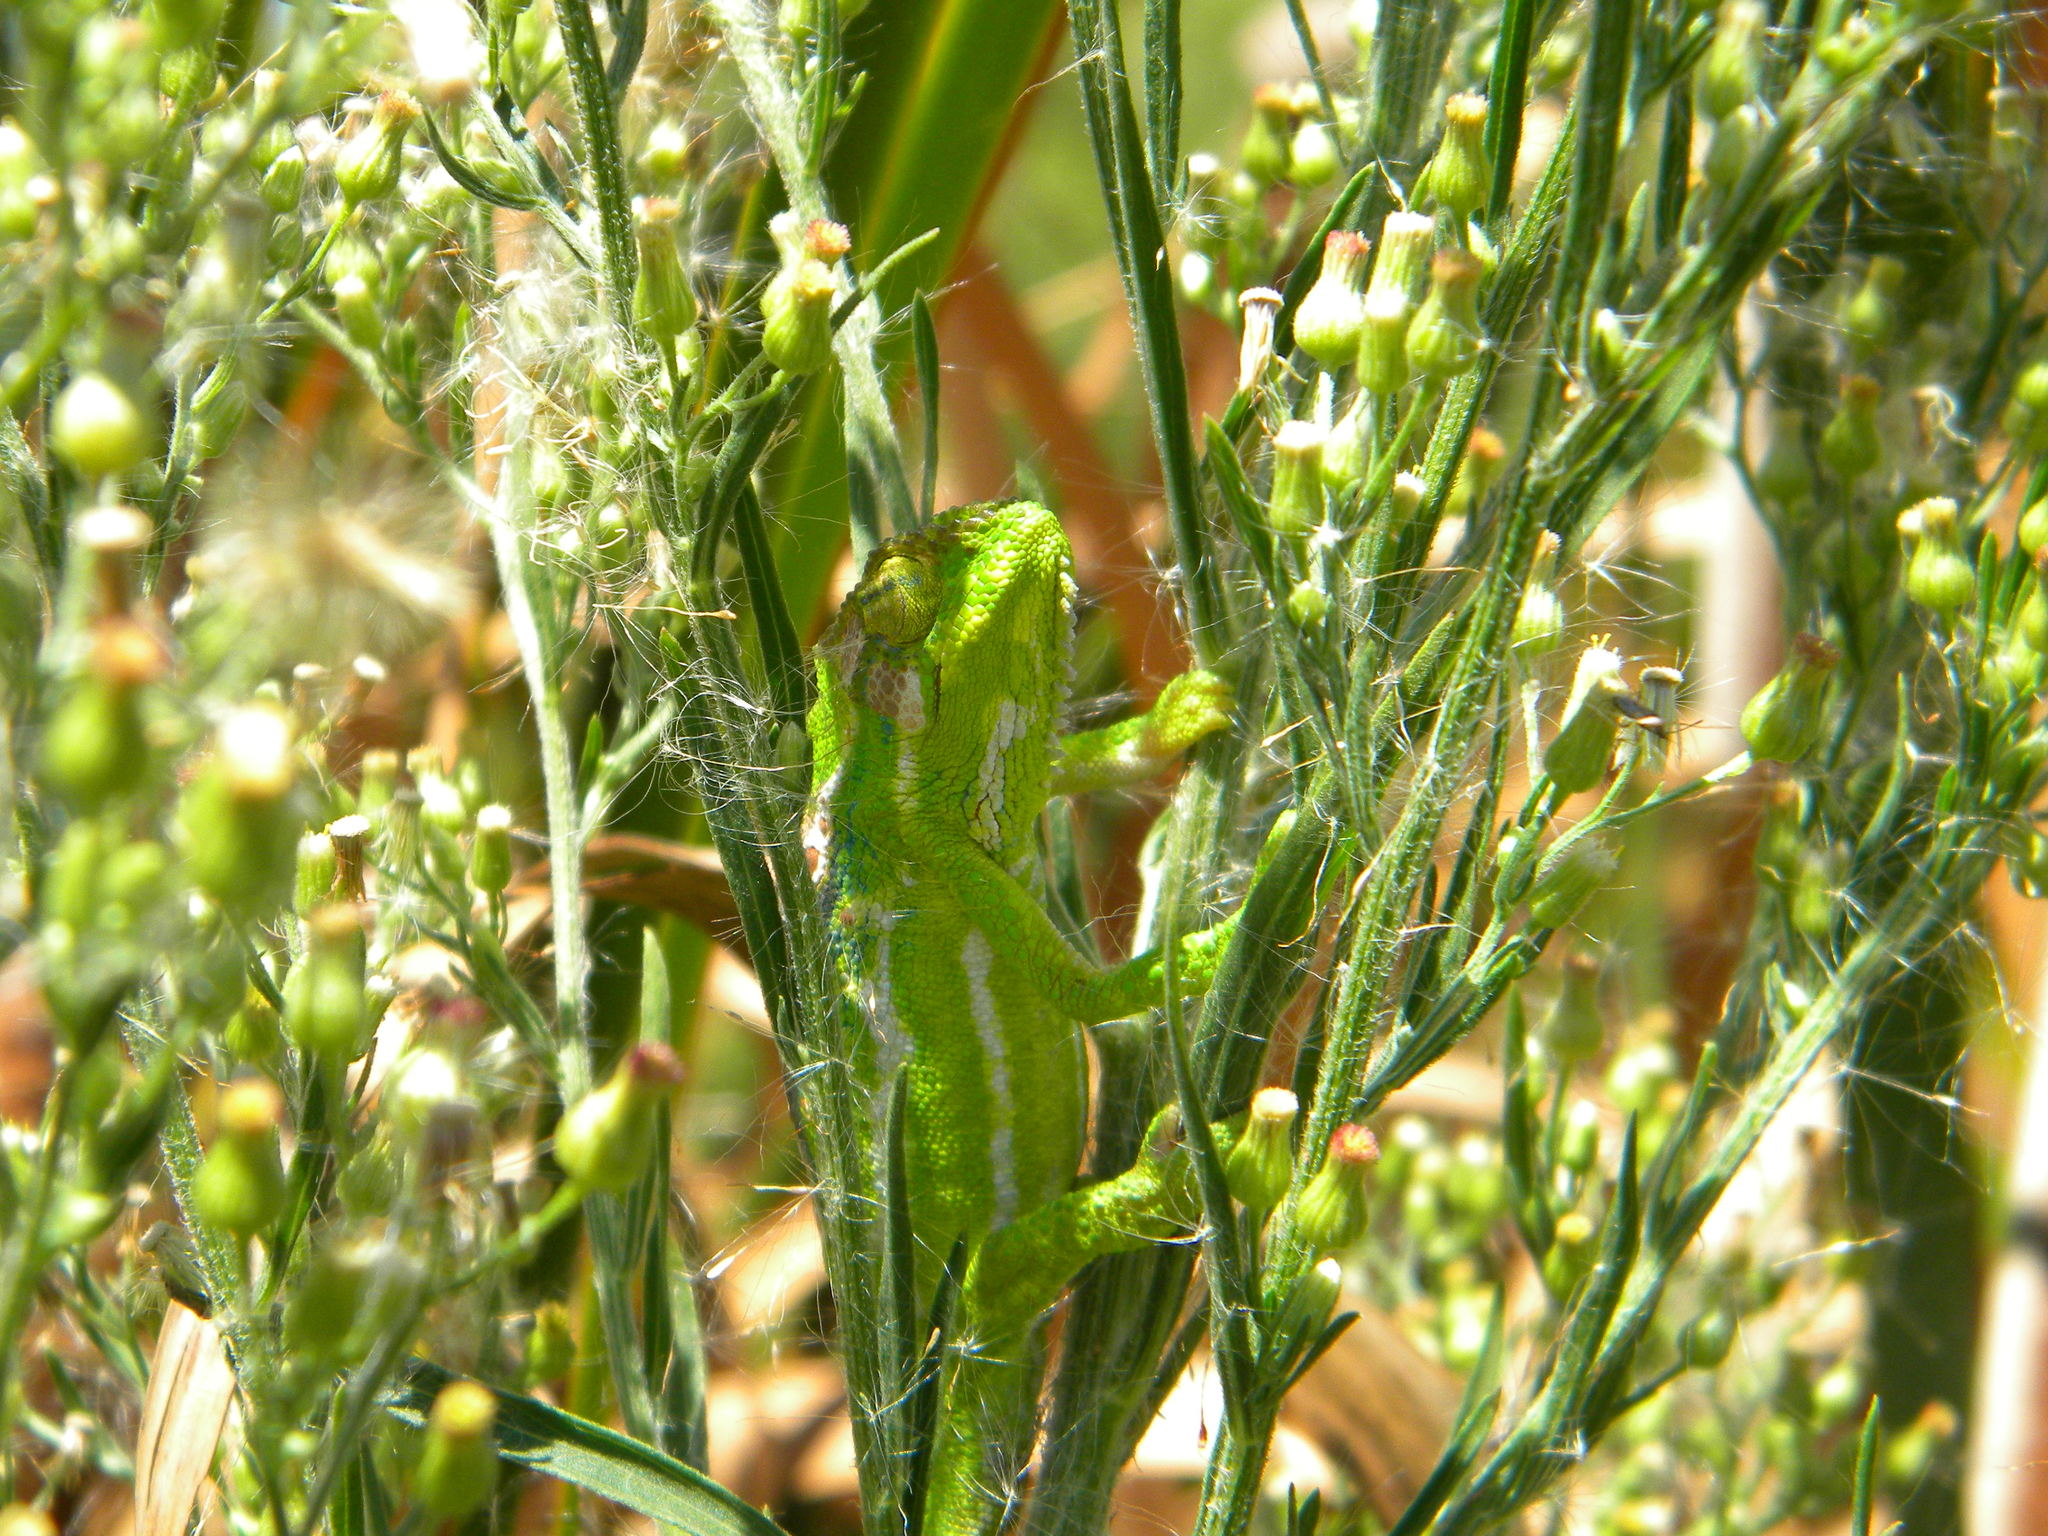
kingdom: Animalia
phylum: Chordata
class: Squamata
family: Chamaeleonidae
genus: Bradypodion
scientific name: Bradypodion pumilum
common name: Cape dwarf chameleon
